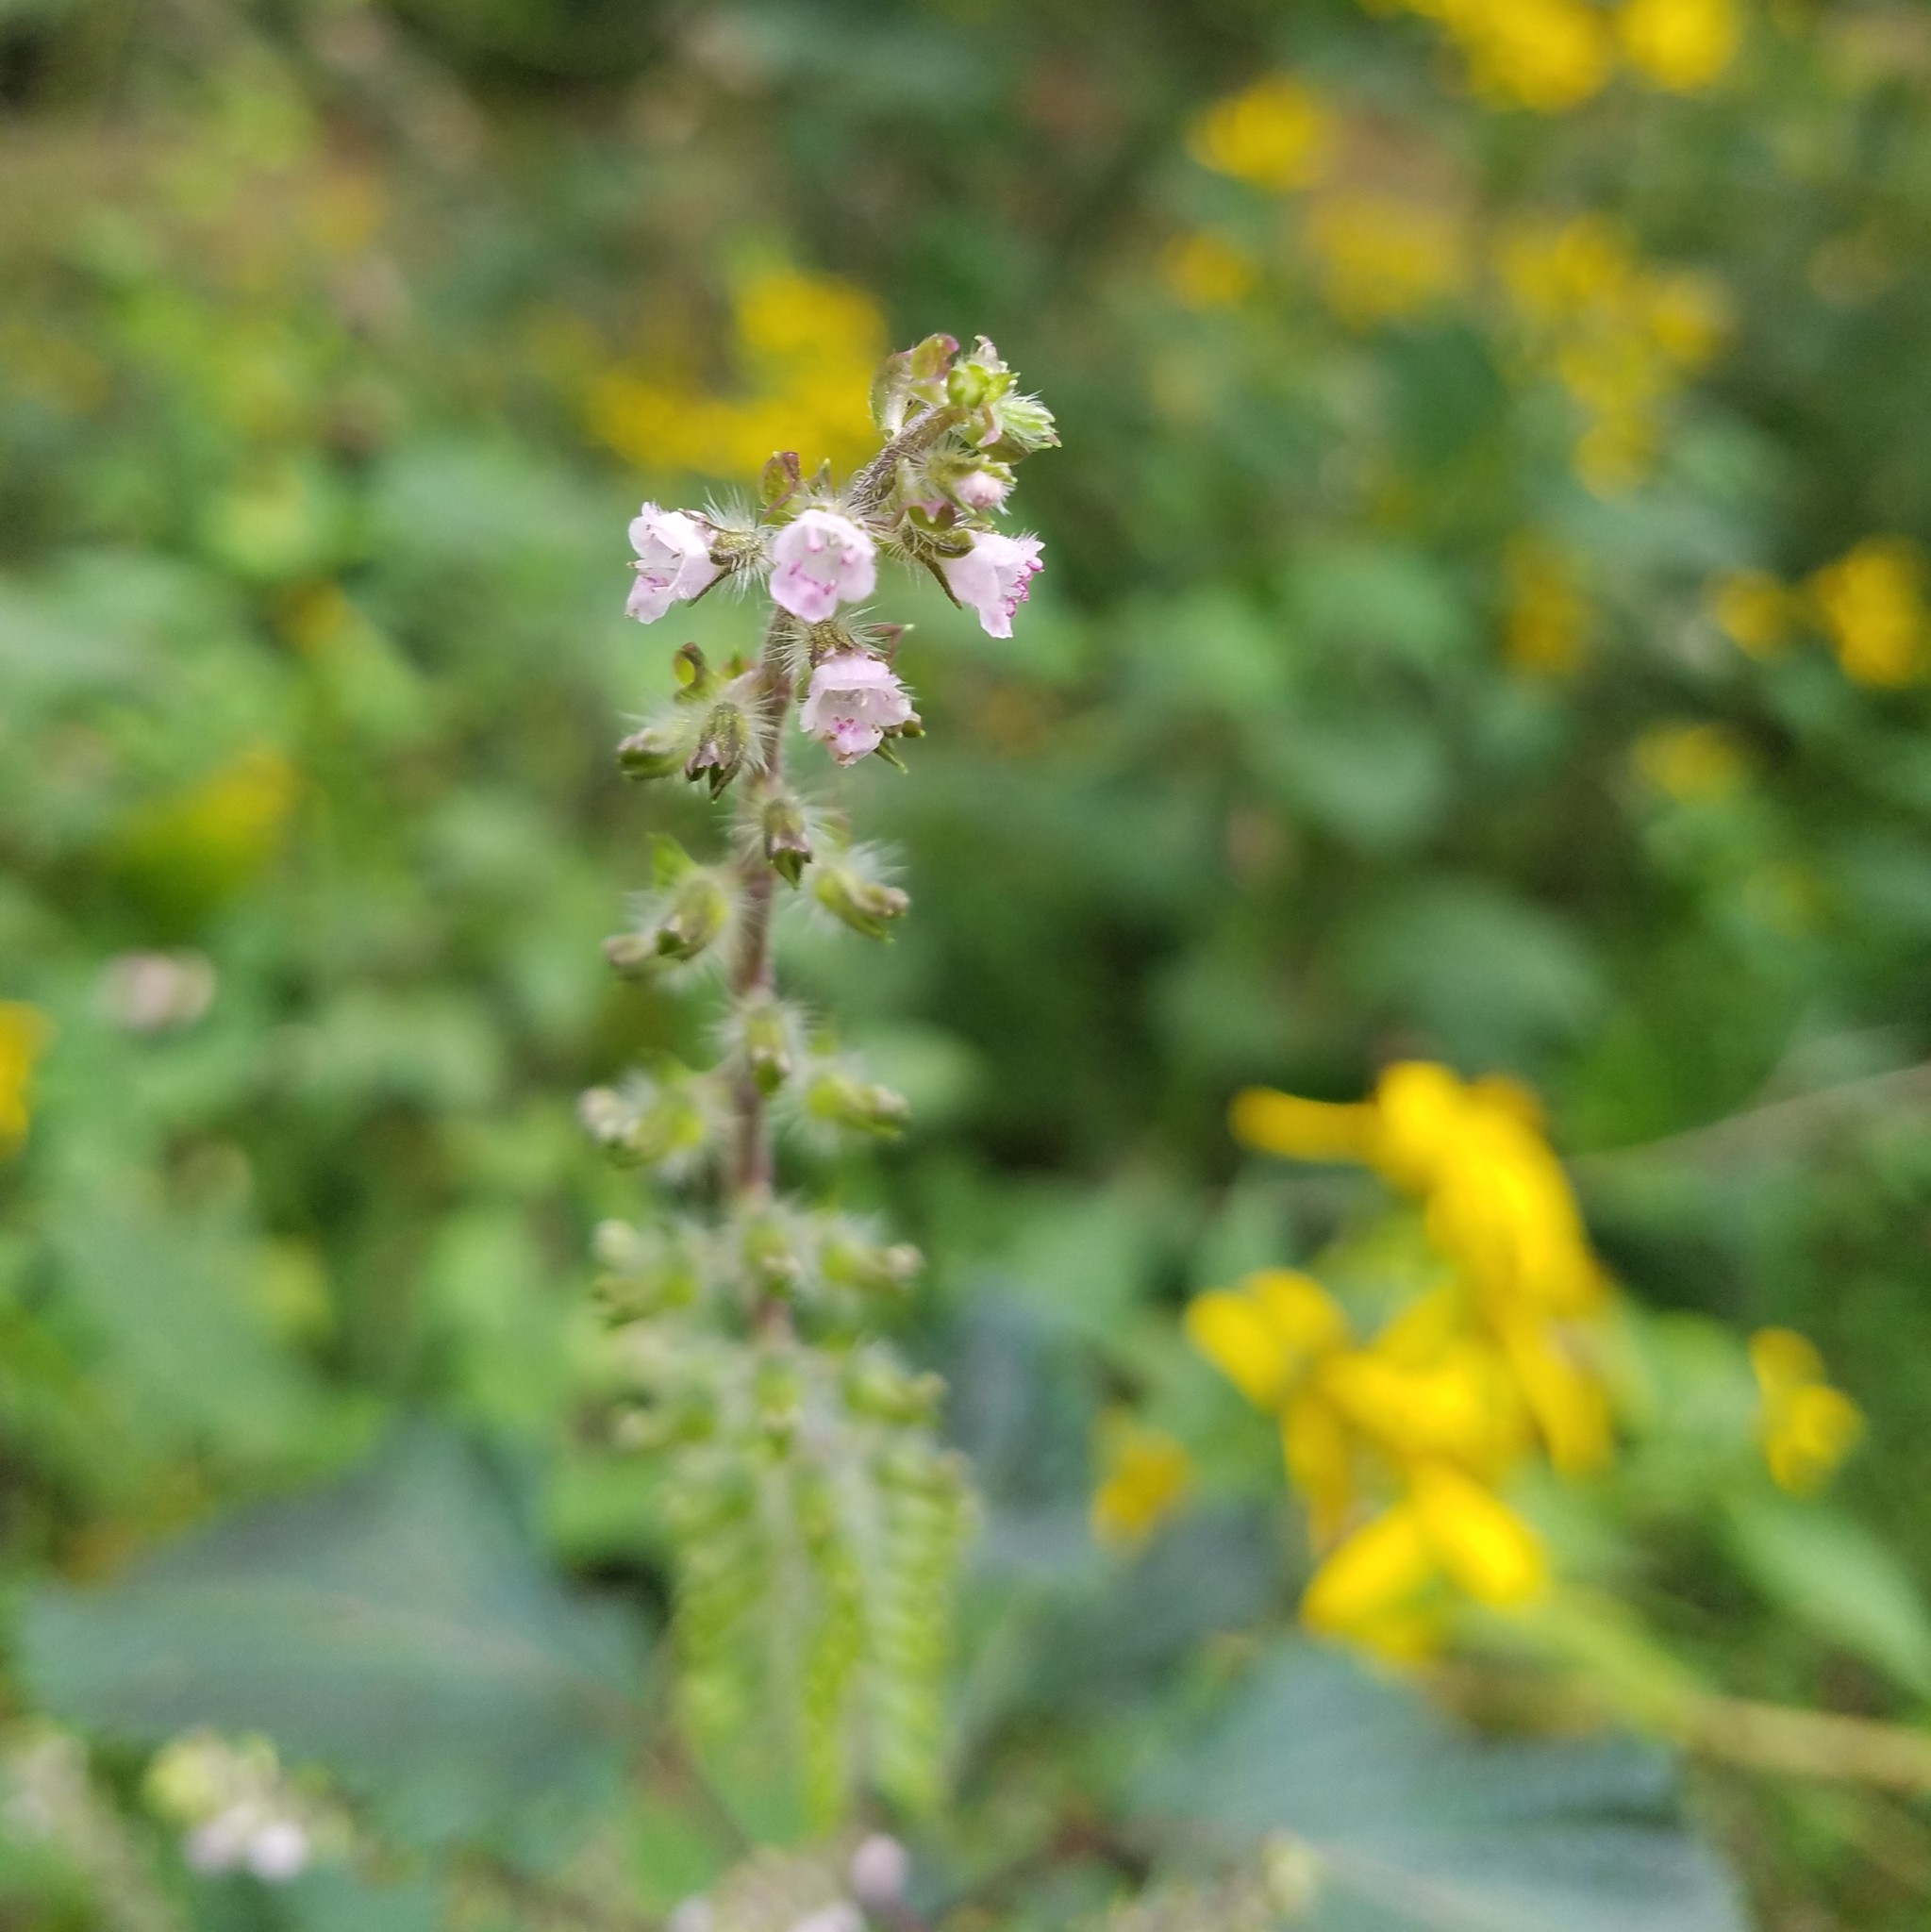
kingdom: Plantae
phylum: Tracheophyta
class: Magnoliopsida
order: Lamiales
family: Lamiaceae
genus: Perilla
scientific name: Perilla frutescens
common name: Perilla
